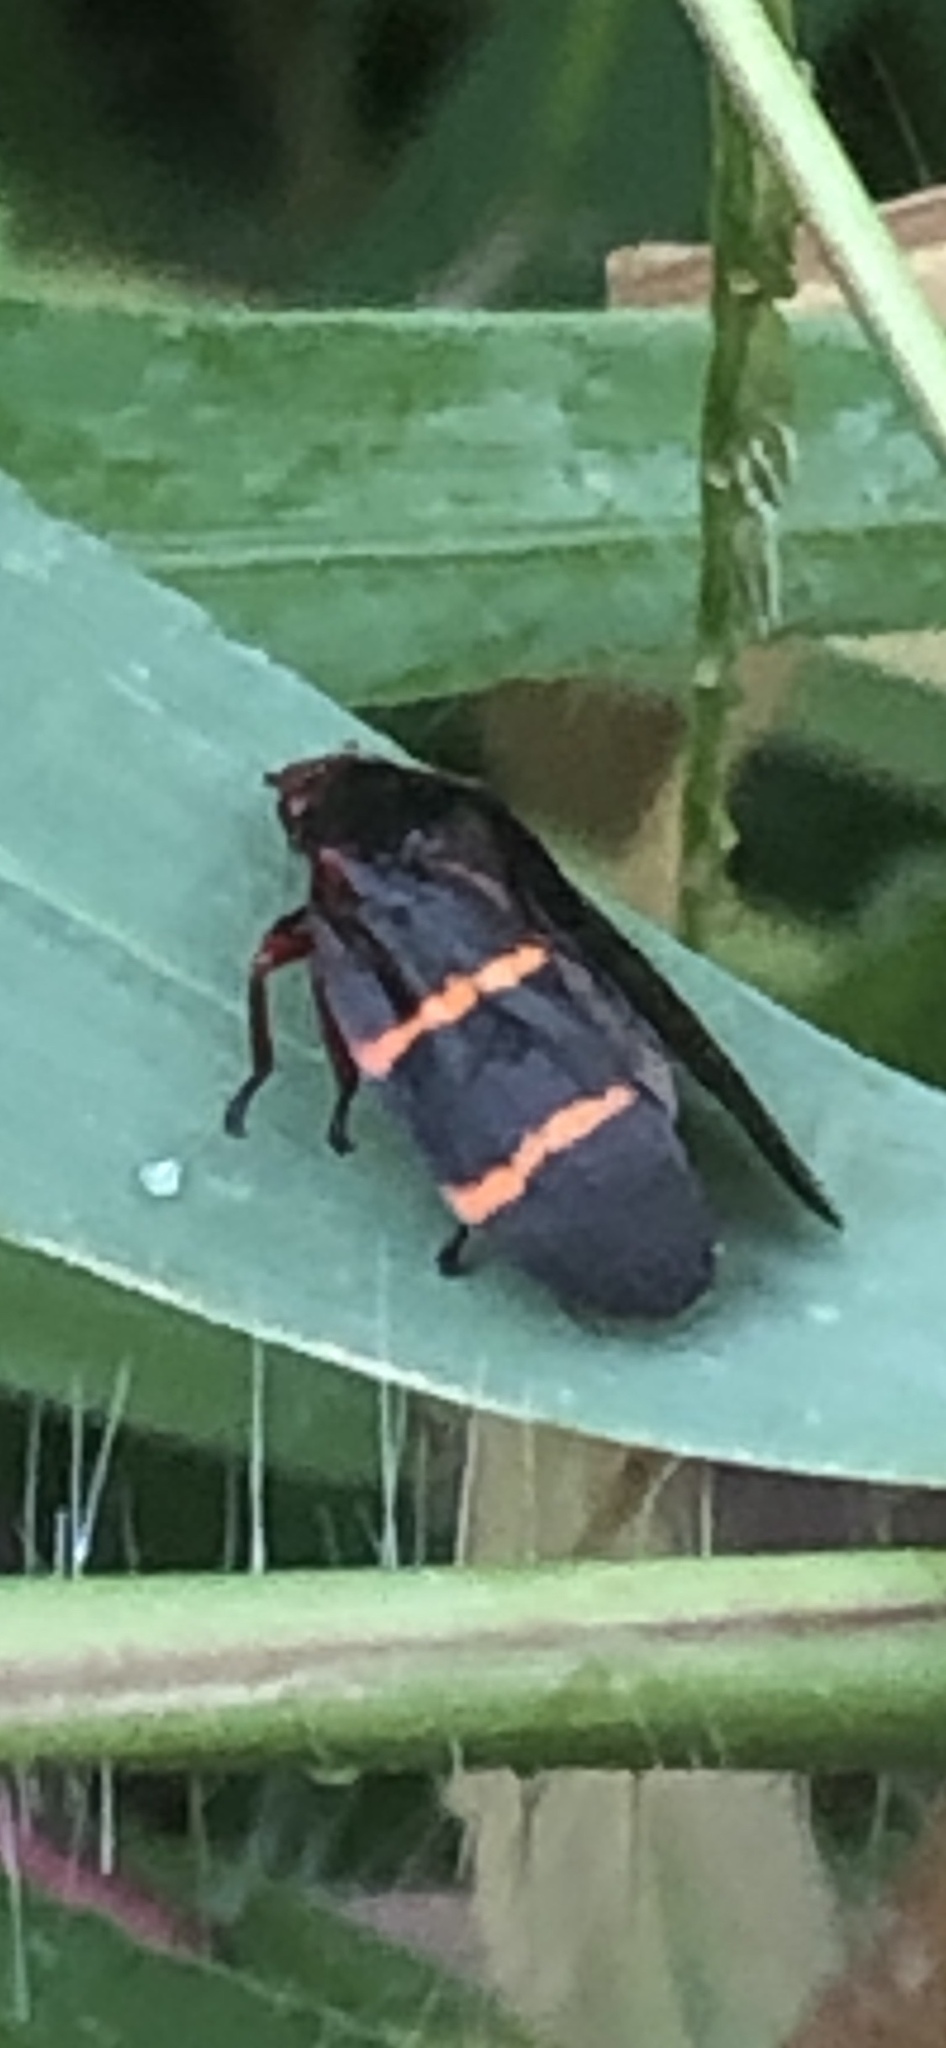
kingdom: Animalia
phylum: Arthropoda
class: Insecta
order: Hemiptera
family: Cercopidae
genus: Prosapia
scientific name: Prosapia bicincta
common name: Twolined spittlebug
